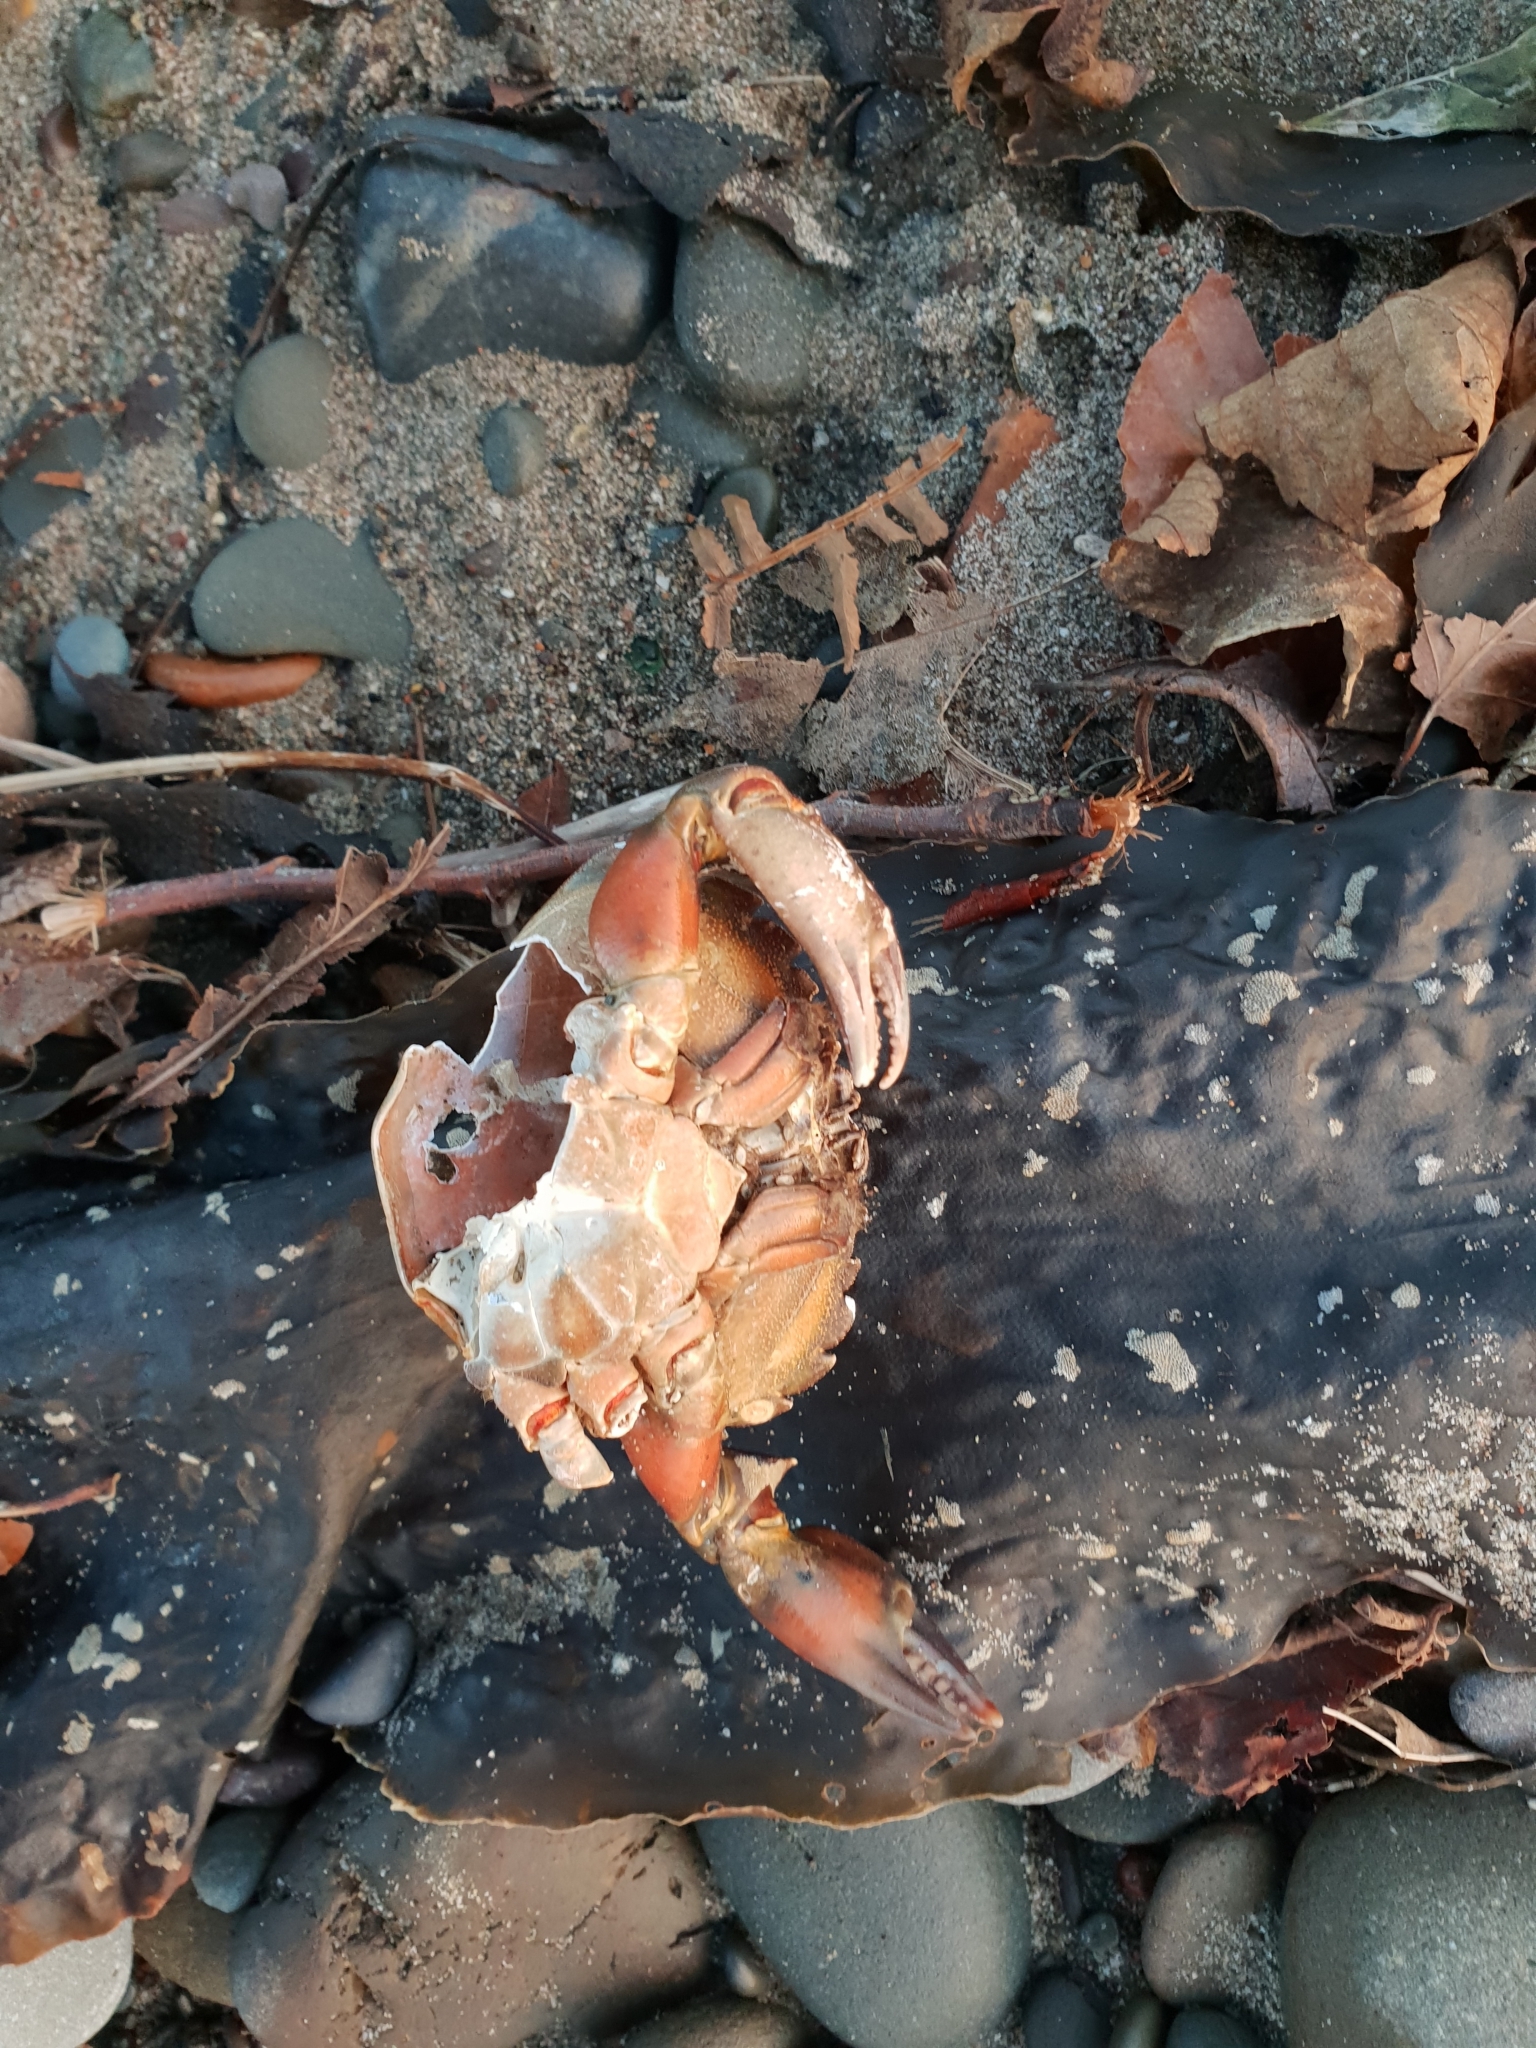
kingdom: Animalia
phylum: Arthropoda
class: Malacostraca
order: Decapoda
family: Carcinidae
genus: Carcinus
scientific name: Carcinus maenas
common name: European green crab
